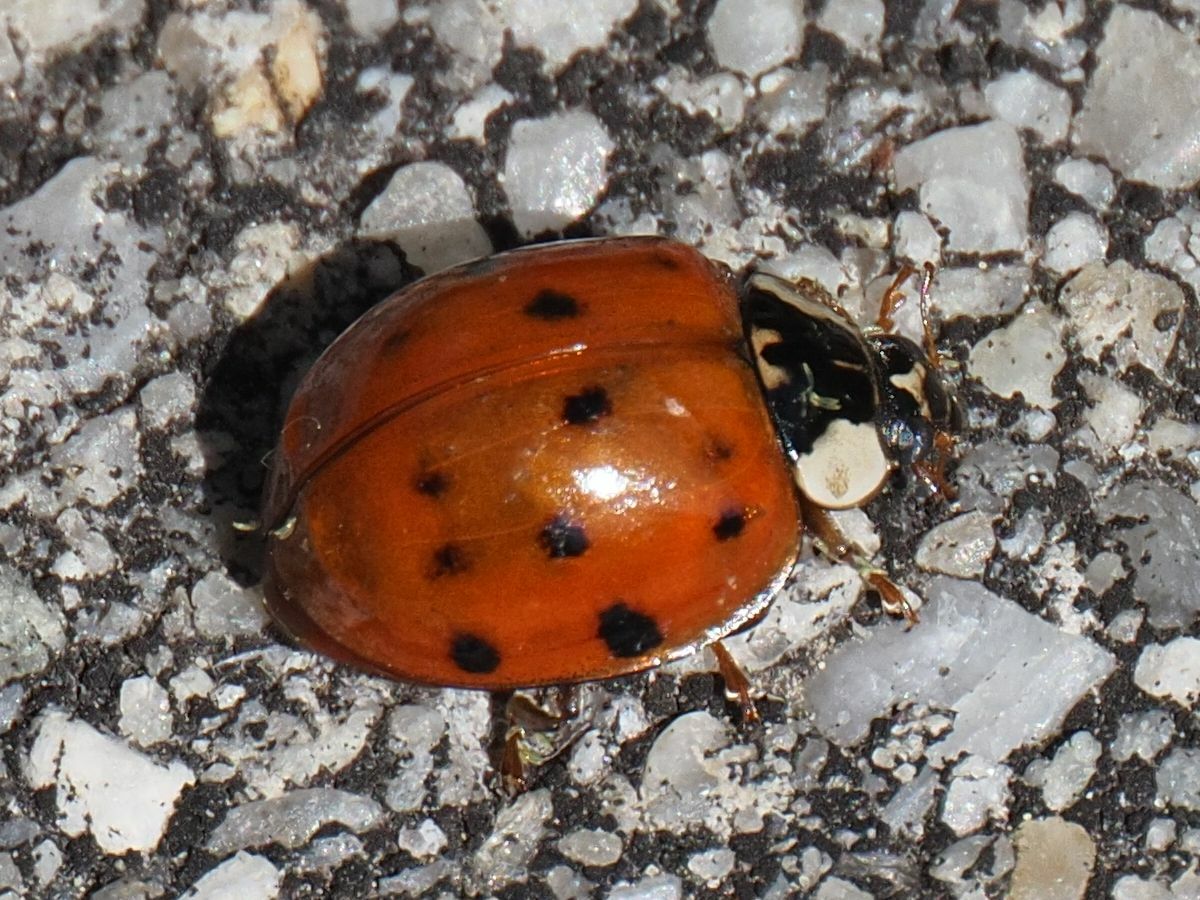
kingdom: Animalia
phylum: Arthropoda
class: Insecta
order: Coleoptera
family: Coccinellidae
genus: Harmonia
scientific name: Harmonia axyridis
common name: Harlequin ladybird
